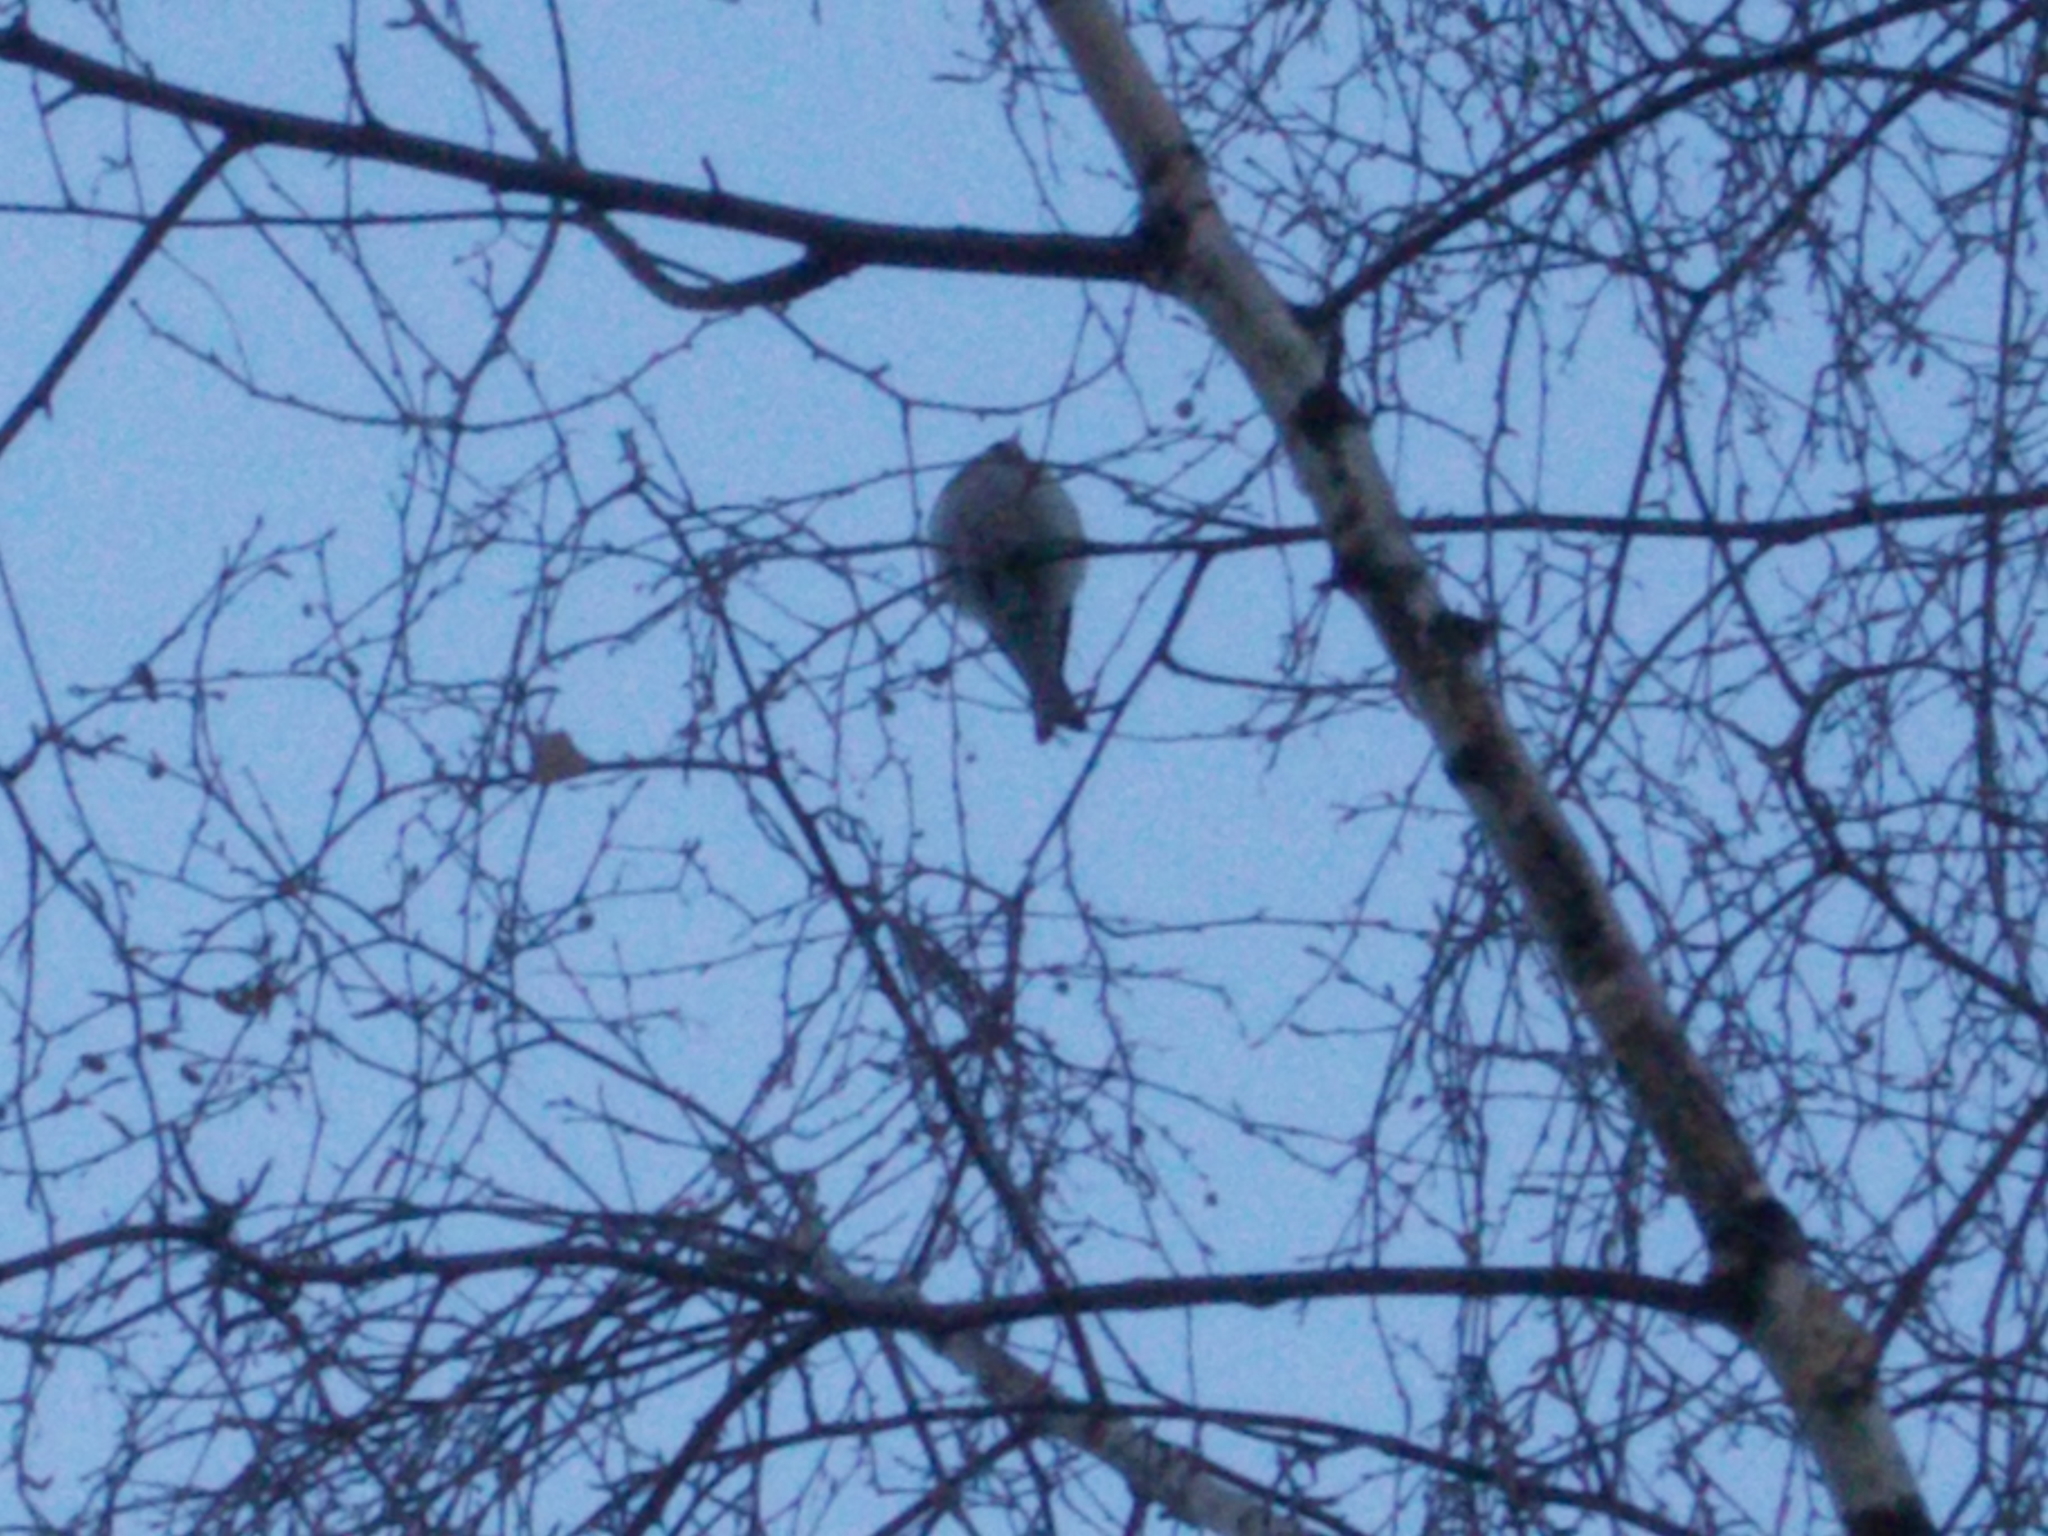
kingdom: Animalia
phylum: Chordata
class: Aves
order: Passeriformes
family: Fringillidae
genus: Carduelis
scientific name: Carduelis carduelis
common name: European goldfinch
